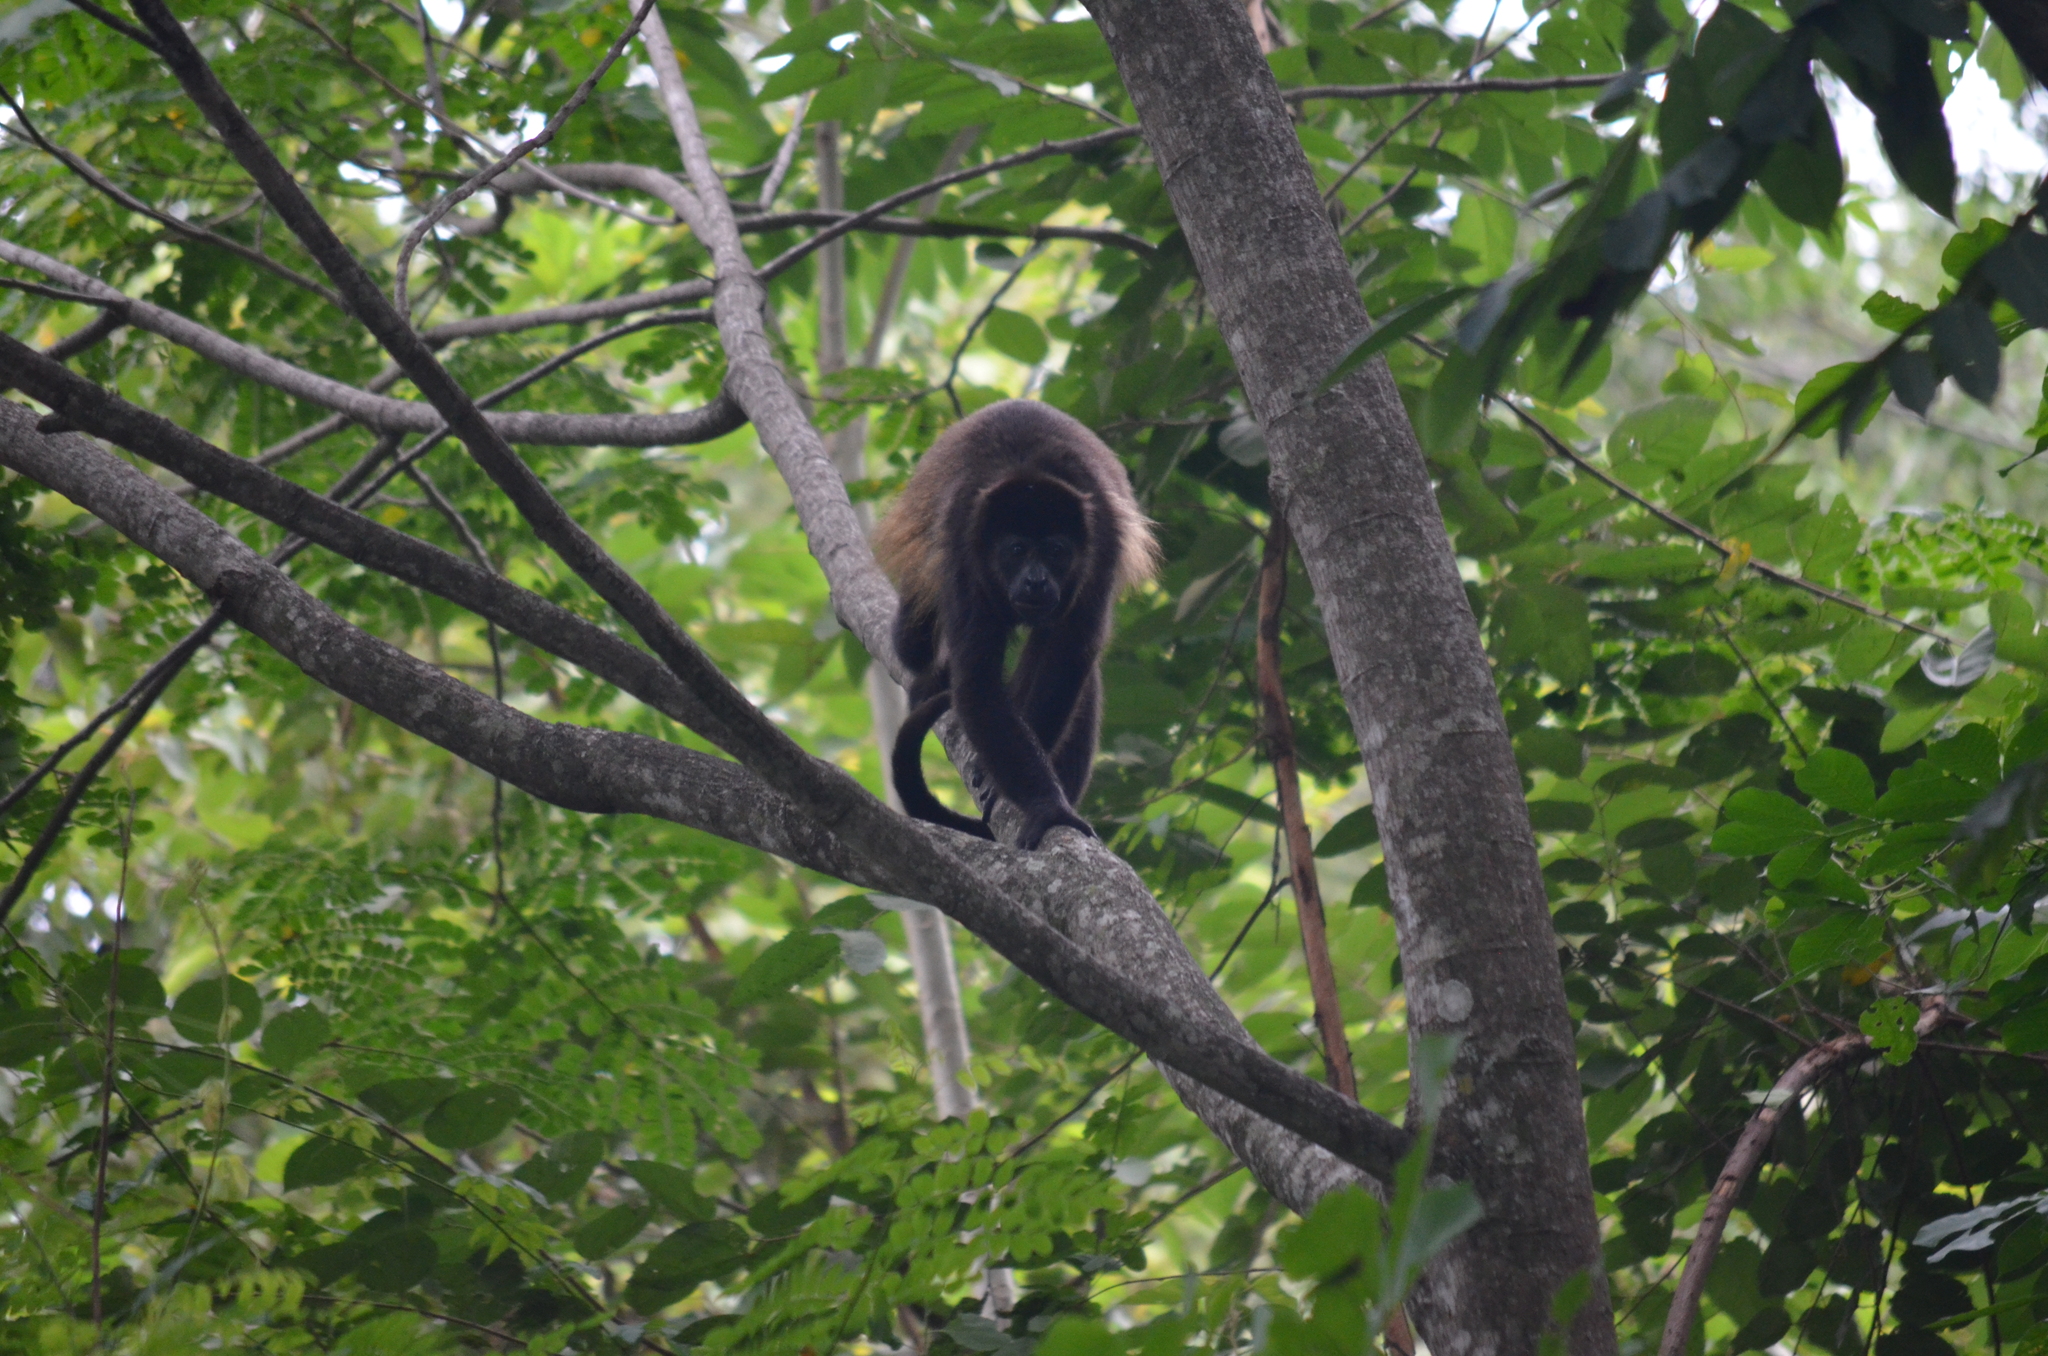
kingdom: Animalia
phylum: Chordata
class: Mammalia
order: Primates
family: Atelidae
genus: Alouatta
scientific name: Alouatta palliata
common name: Mantled howler
